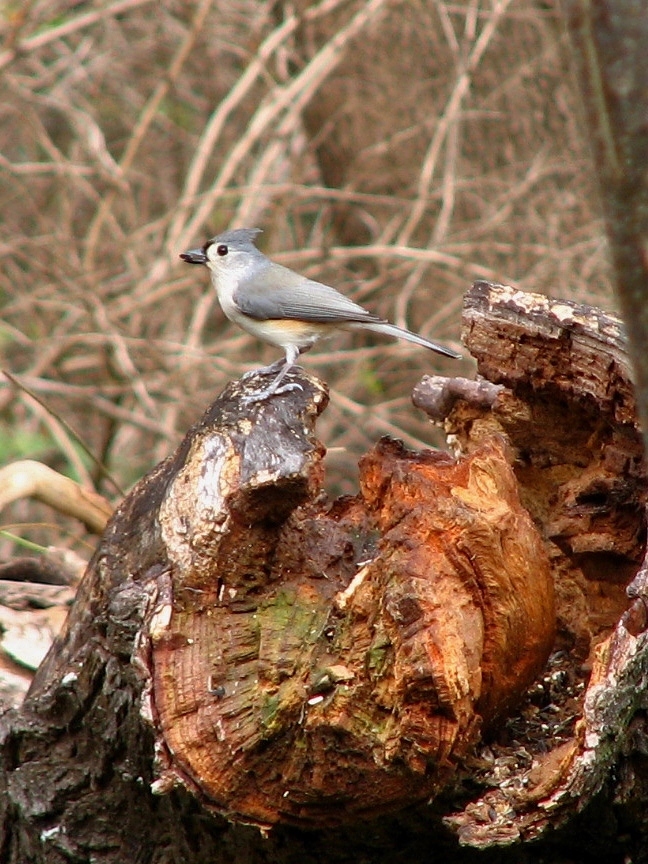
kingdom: Animalia
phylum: Chordata
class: Aves
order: Passeriformes
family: Paridae
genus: Baeolophus
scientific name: Baeolophus bicolor
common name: Tufted titmouse
